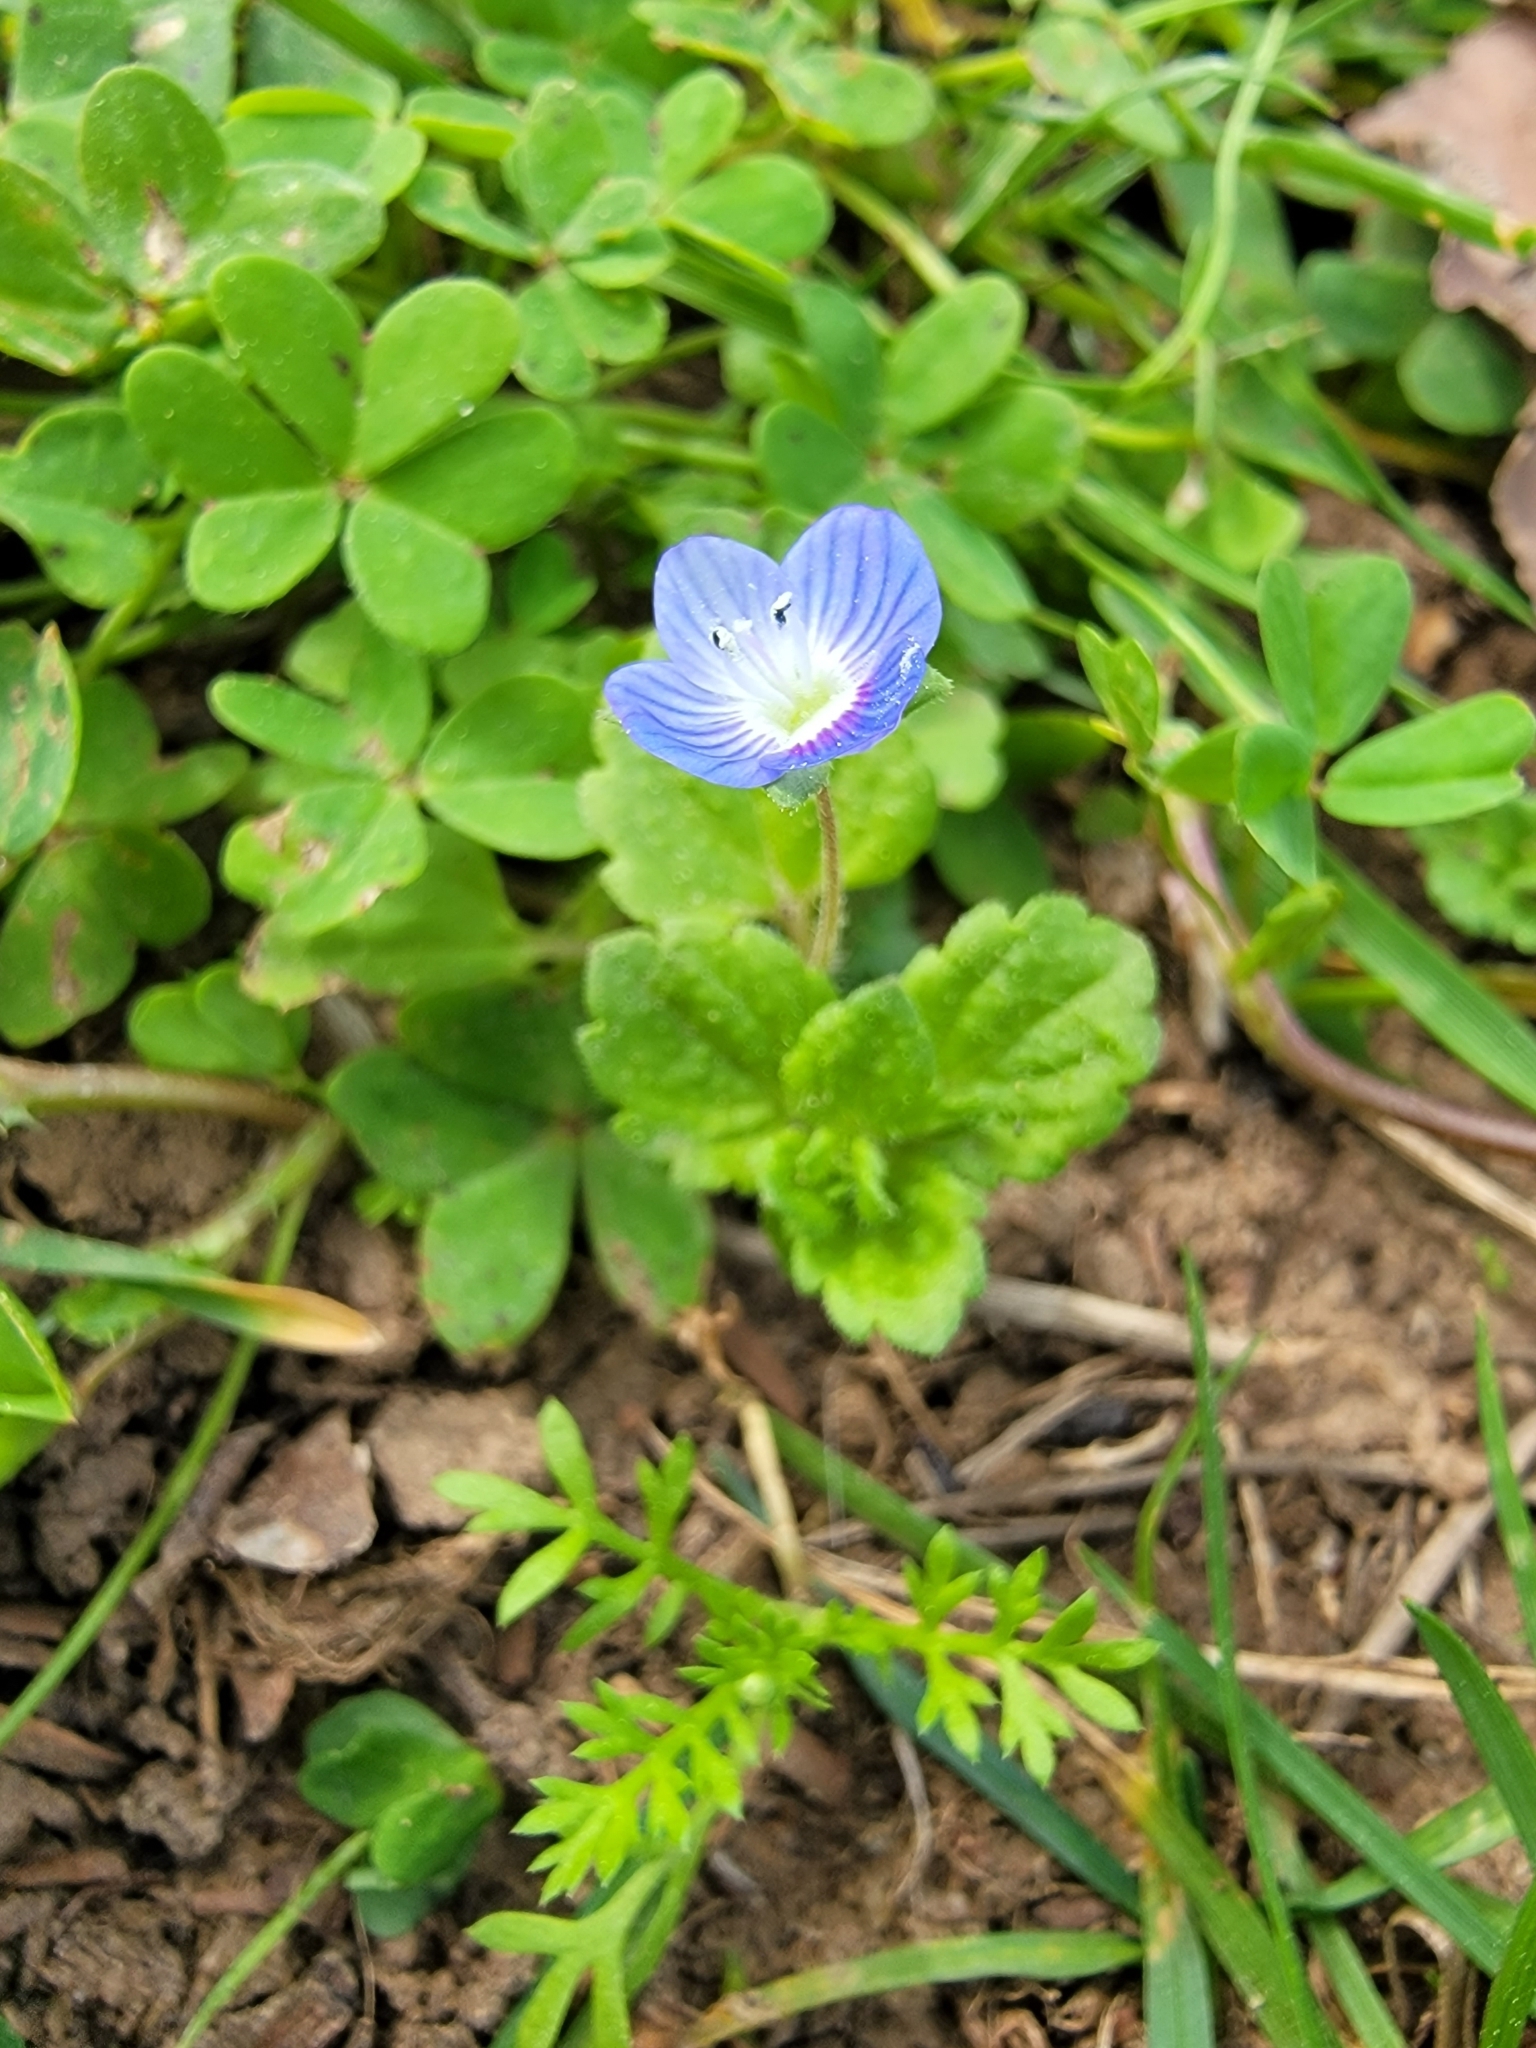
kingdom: Plantae
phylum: Tracheophyta
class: Magnoliopsida
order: Lamiales
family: Plantaginaceae
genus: Veronica
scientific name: Veronica persica
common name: Common field-speedwell
